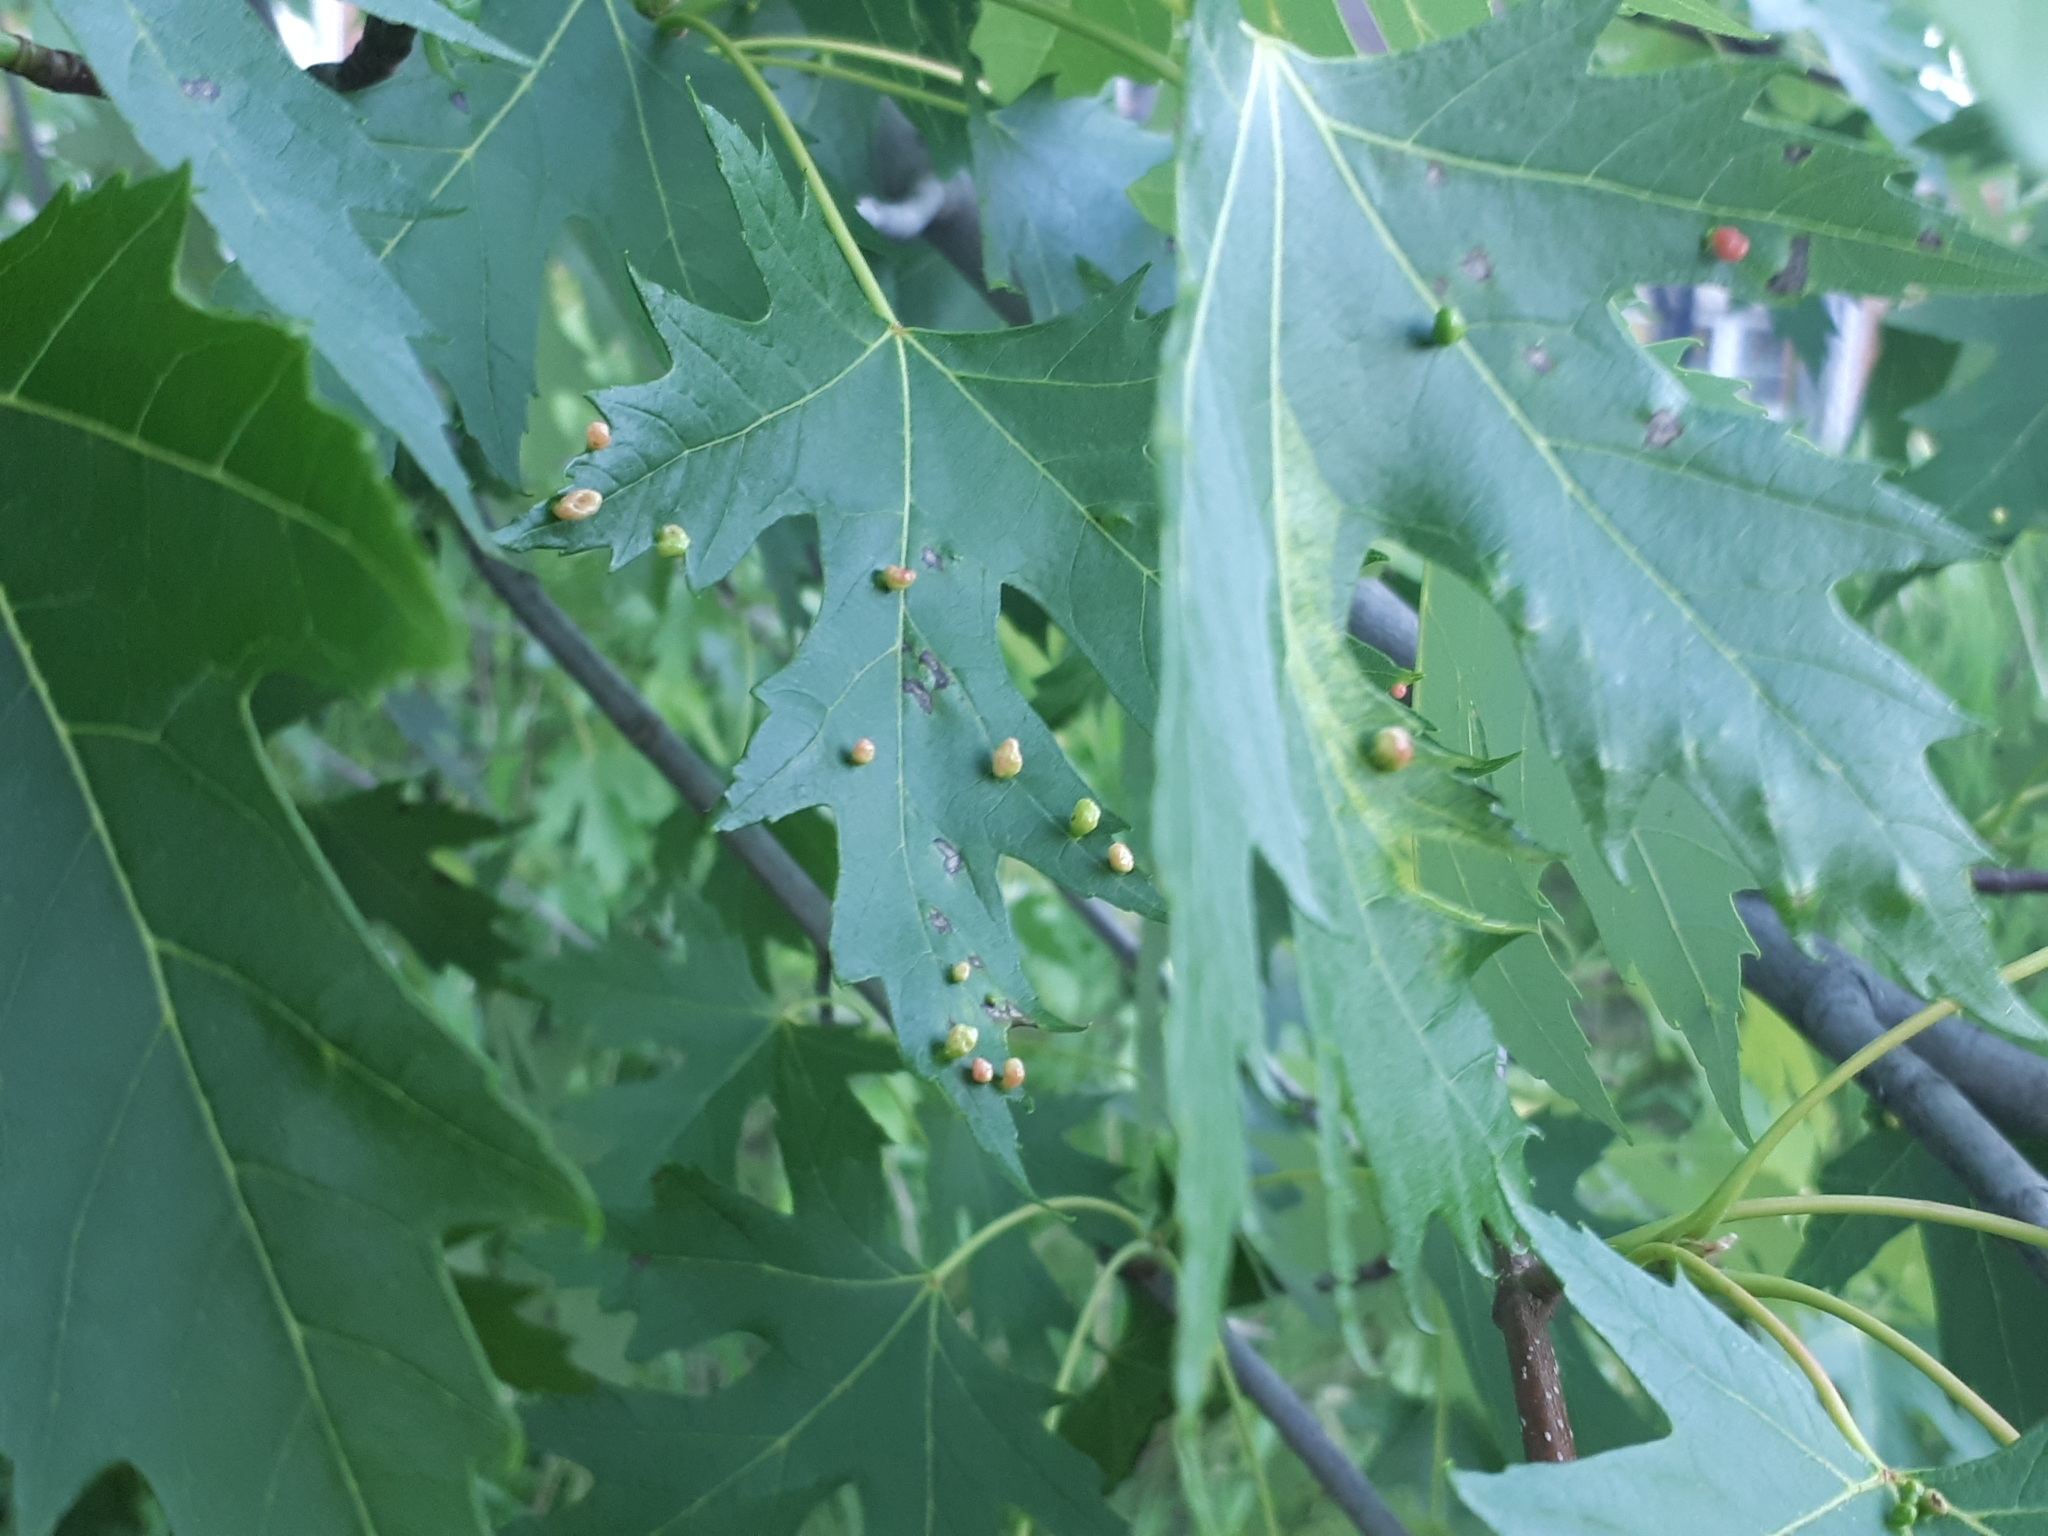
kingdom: Animalia
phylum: Arthropoda
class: Arachnida
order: Trombidiformes
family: Eriophyidae
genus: Vasates
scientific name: Vasates quadripedes
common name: Maple bladder gall mite
